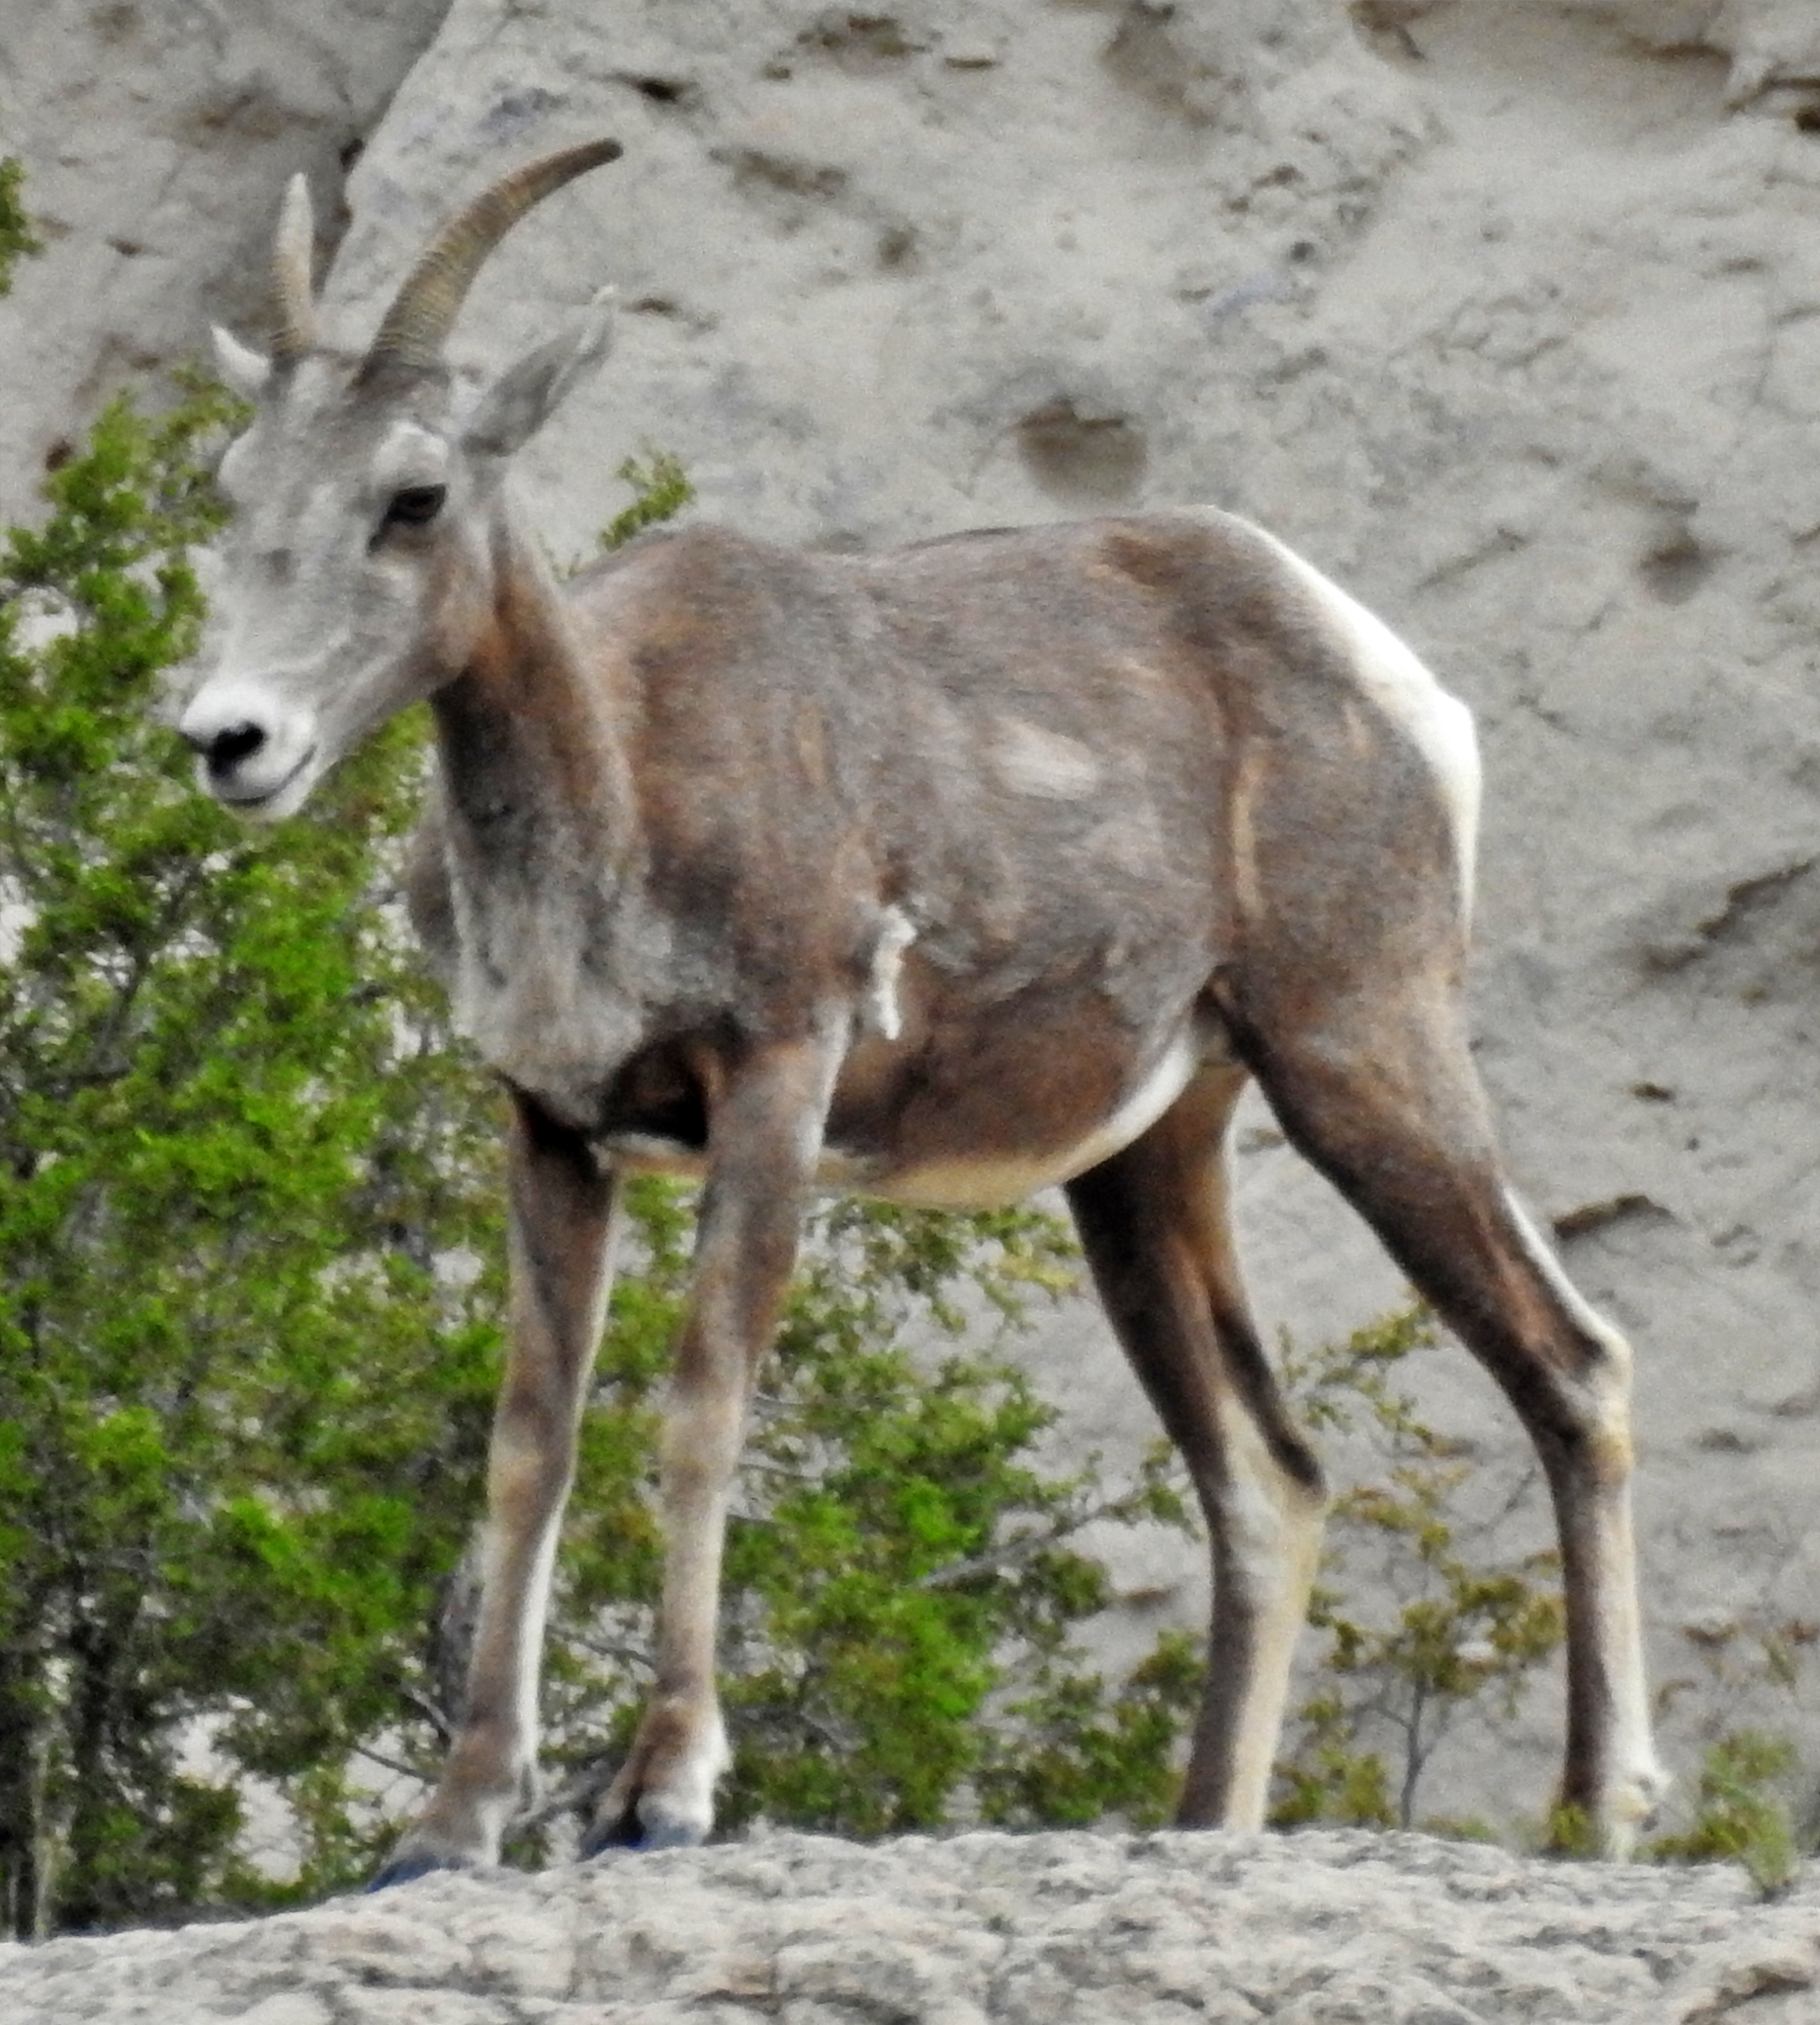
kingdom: Animalia
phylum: Chordata
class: Mammalia
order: Artiodactyla
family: Bovidae
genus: Ovis
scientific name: Ovis canadensis
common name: Bighorn sheep
